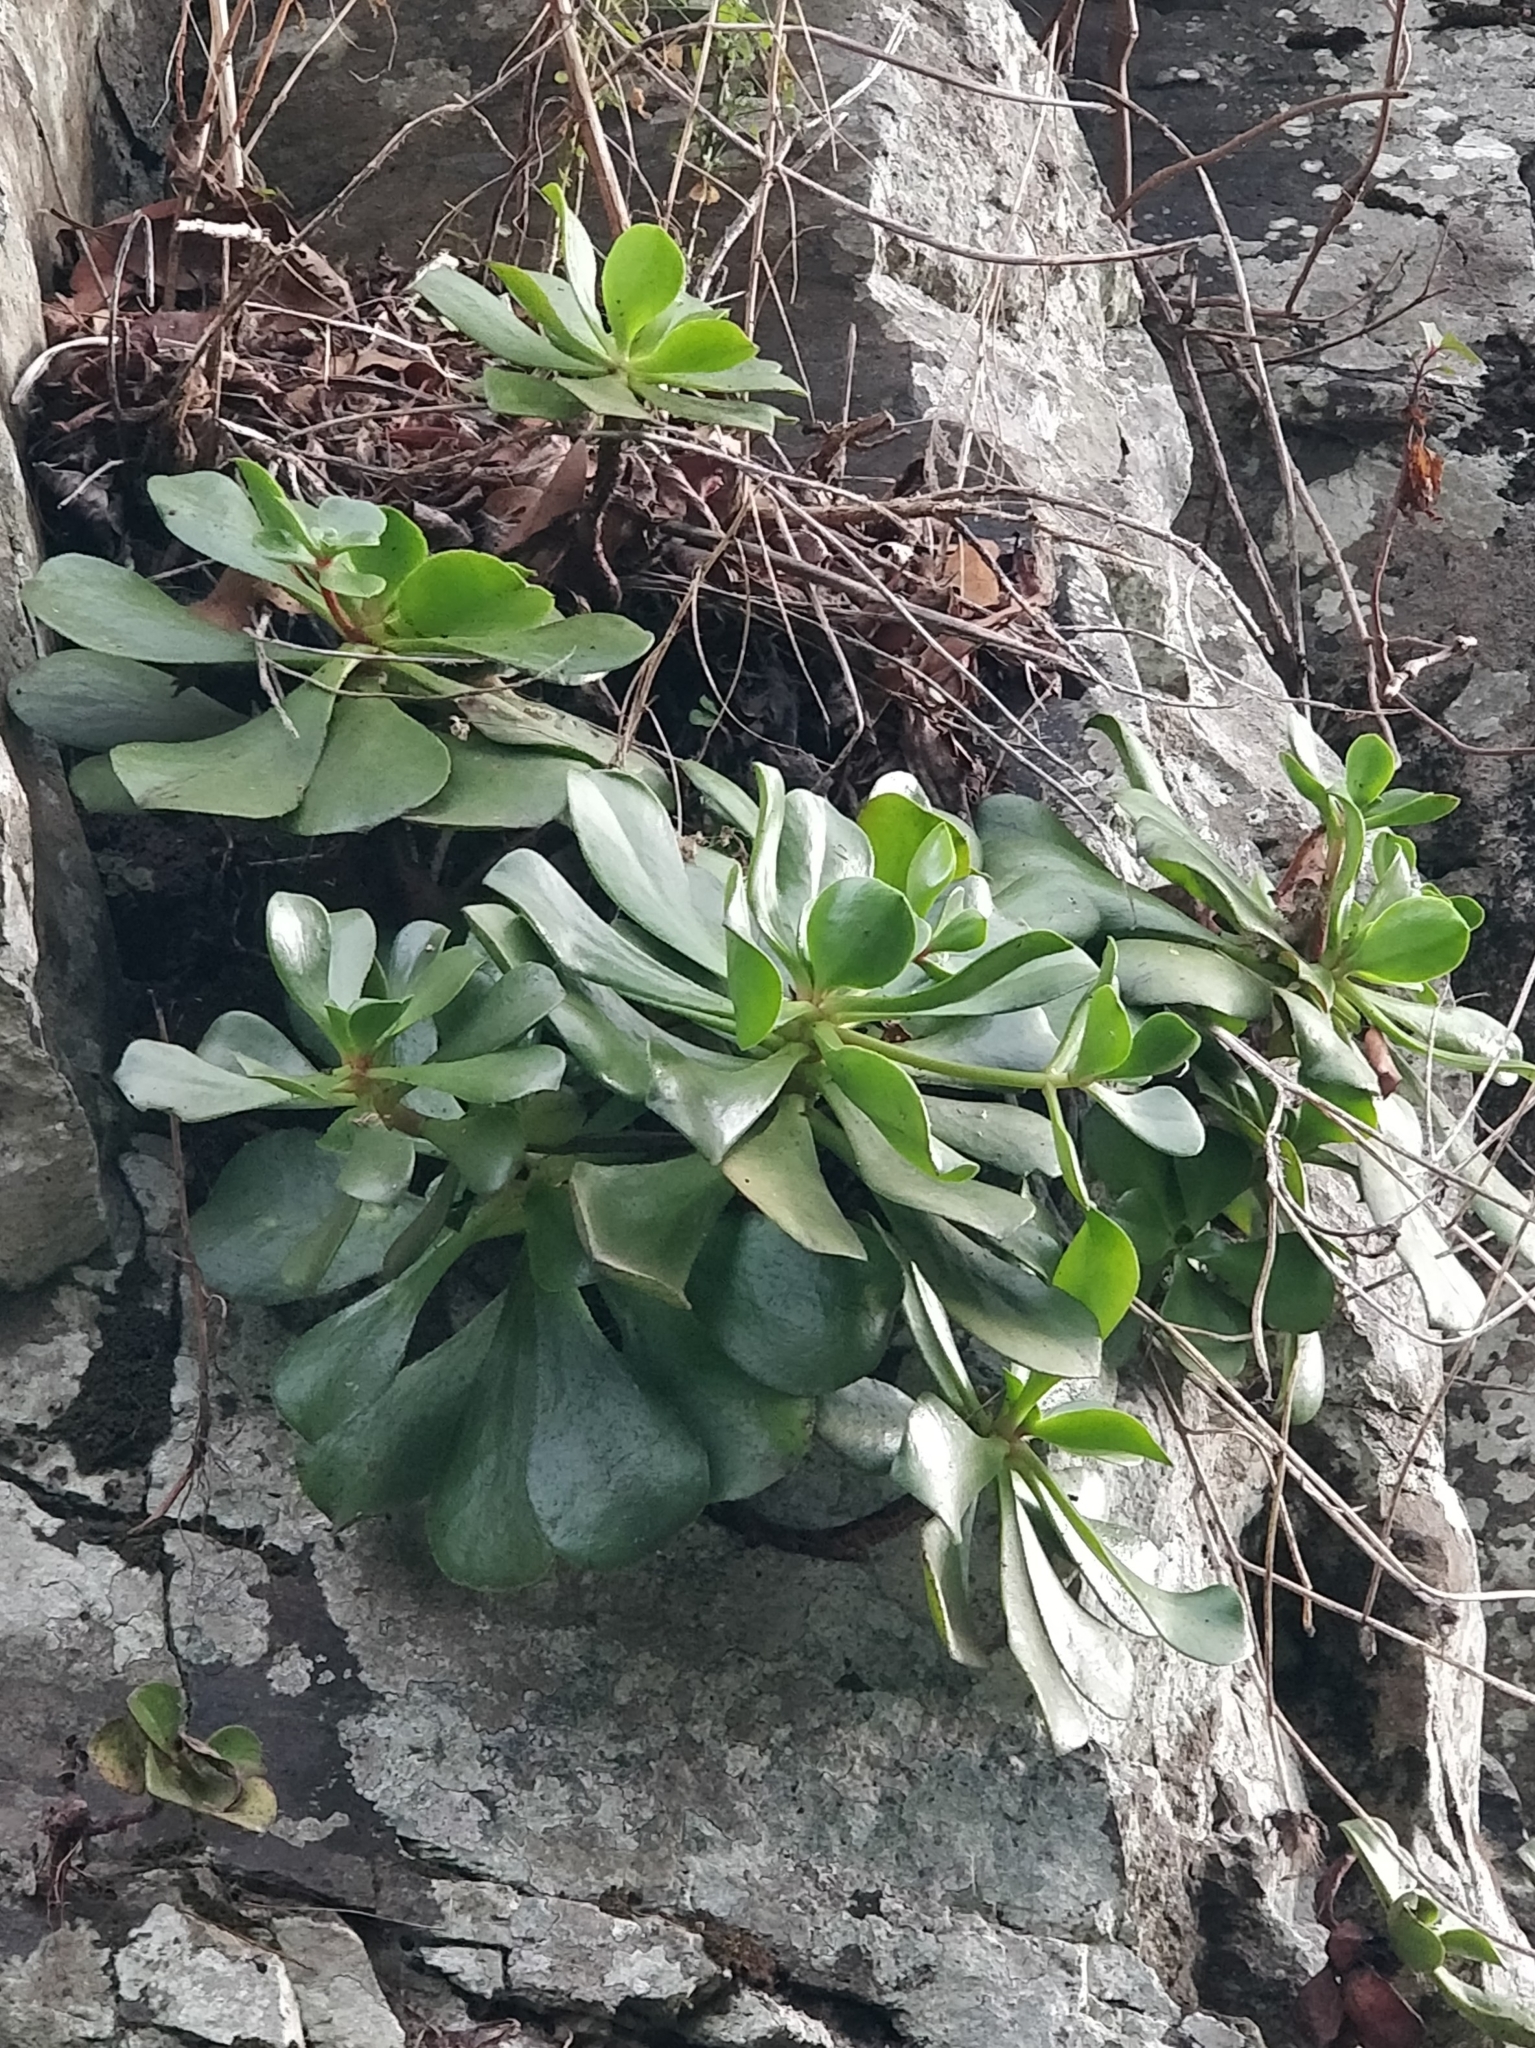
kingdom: Plantae
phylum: Tracheophyta
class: Magnoliopsida
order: Saxifragales
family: Crassulaceae
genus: Aeonium
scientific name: Aeonium glutinosum
